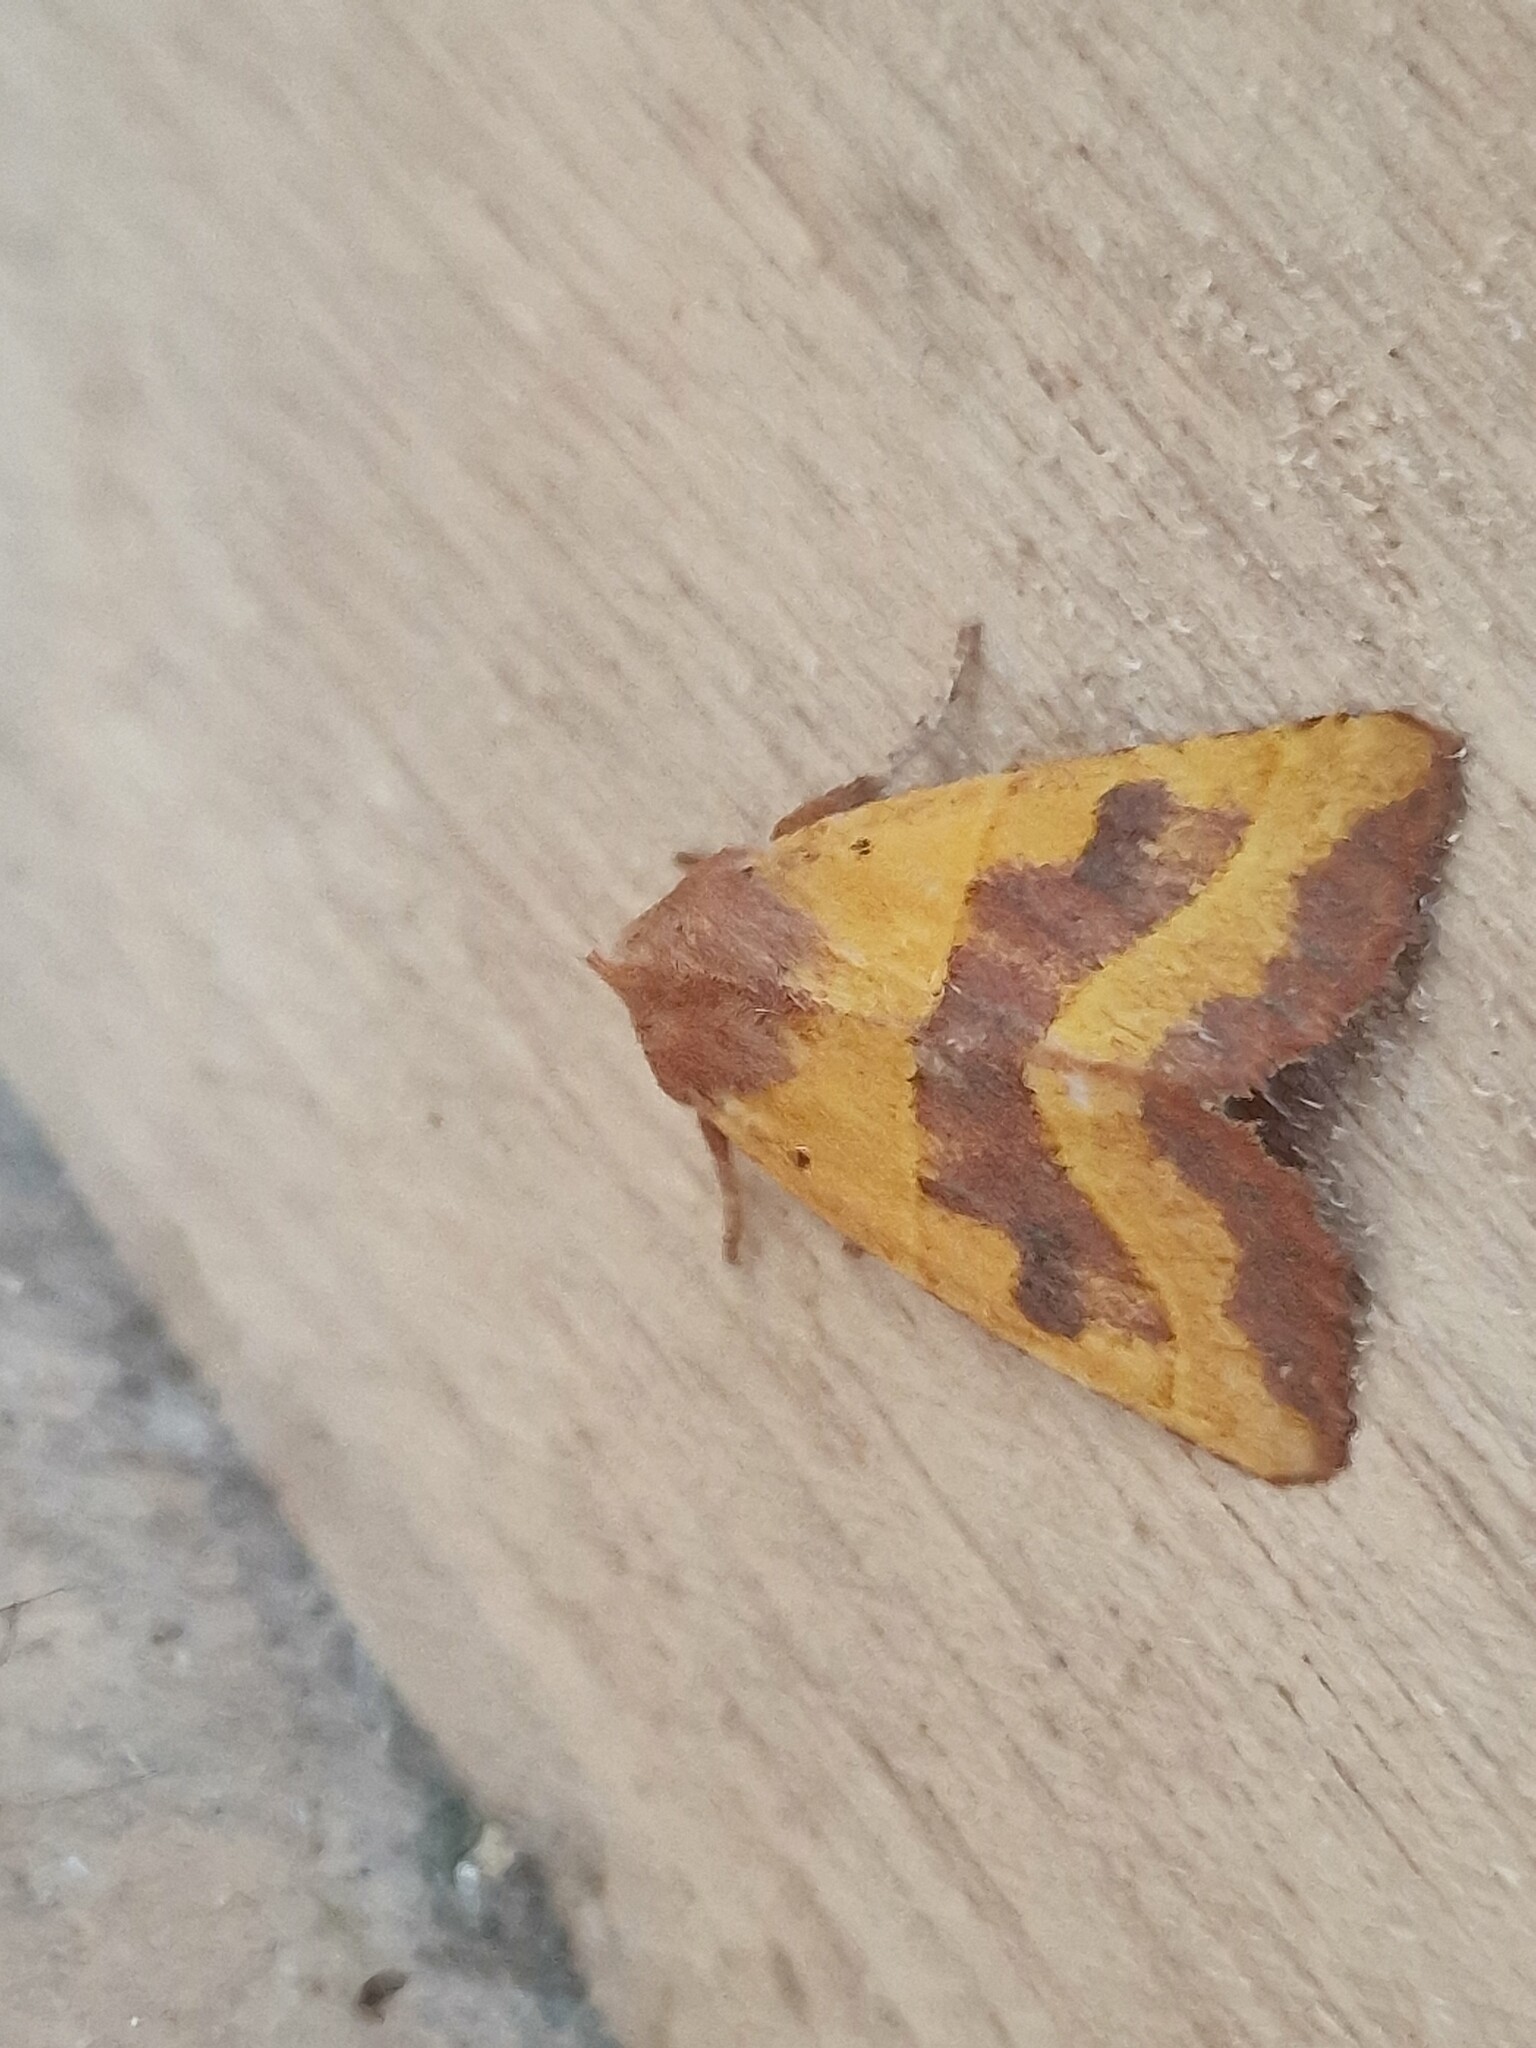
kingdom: Animalia
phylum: Arthropoda
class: Insecta
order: Lepidoptera
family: Noctuidae
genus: Atethmia
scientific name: Atethmia centrago
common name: Centre-barred sallow
